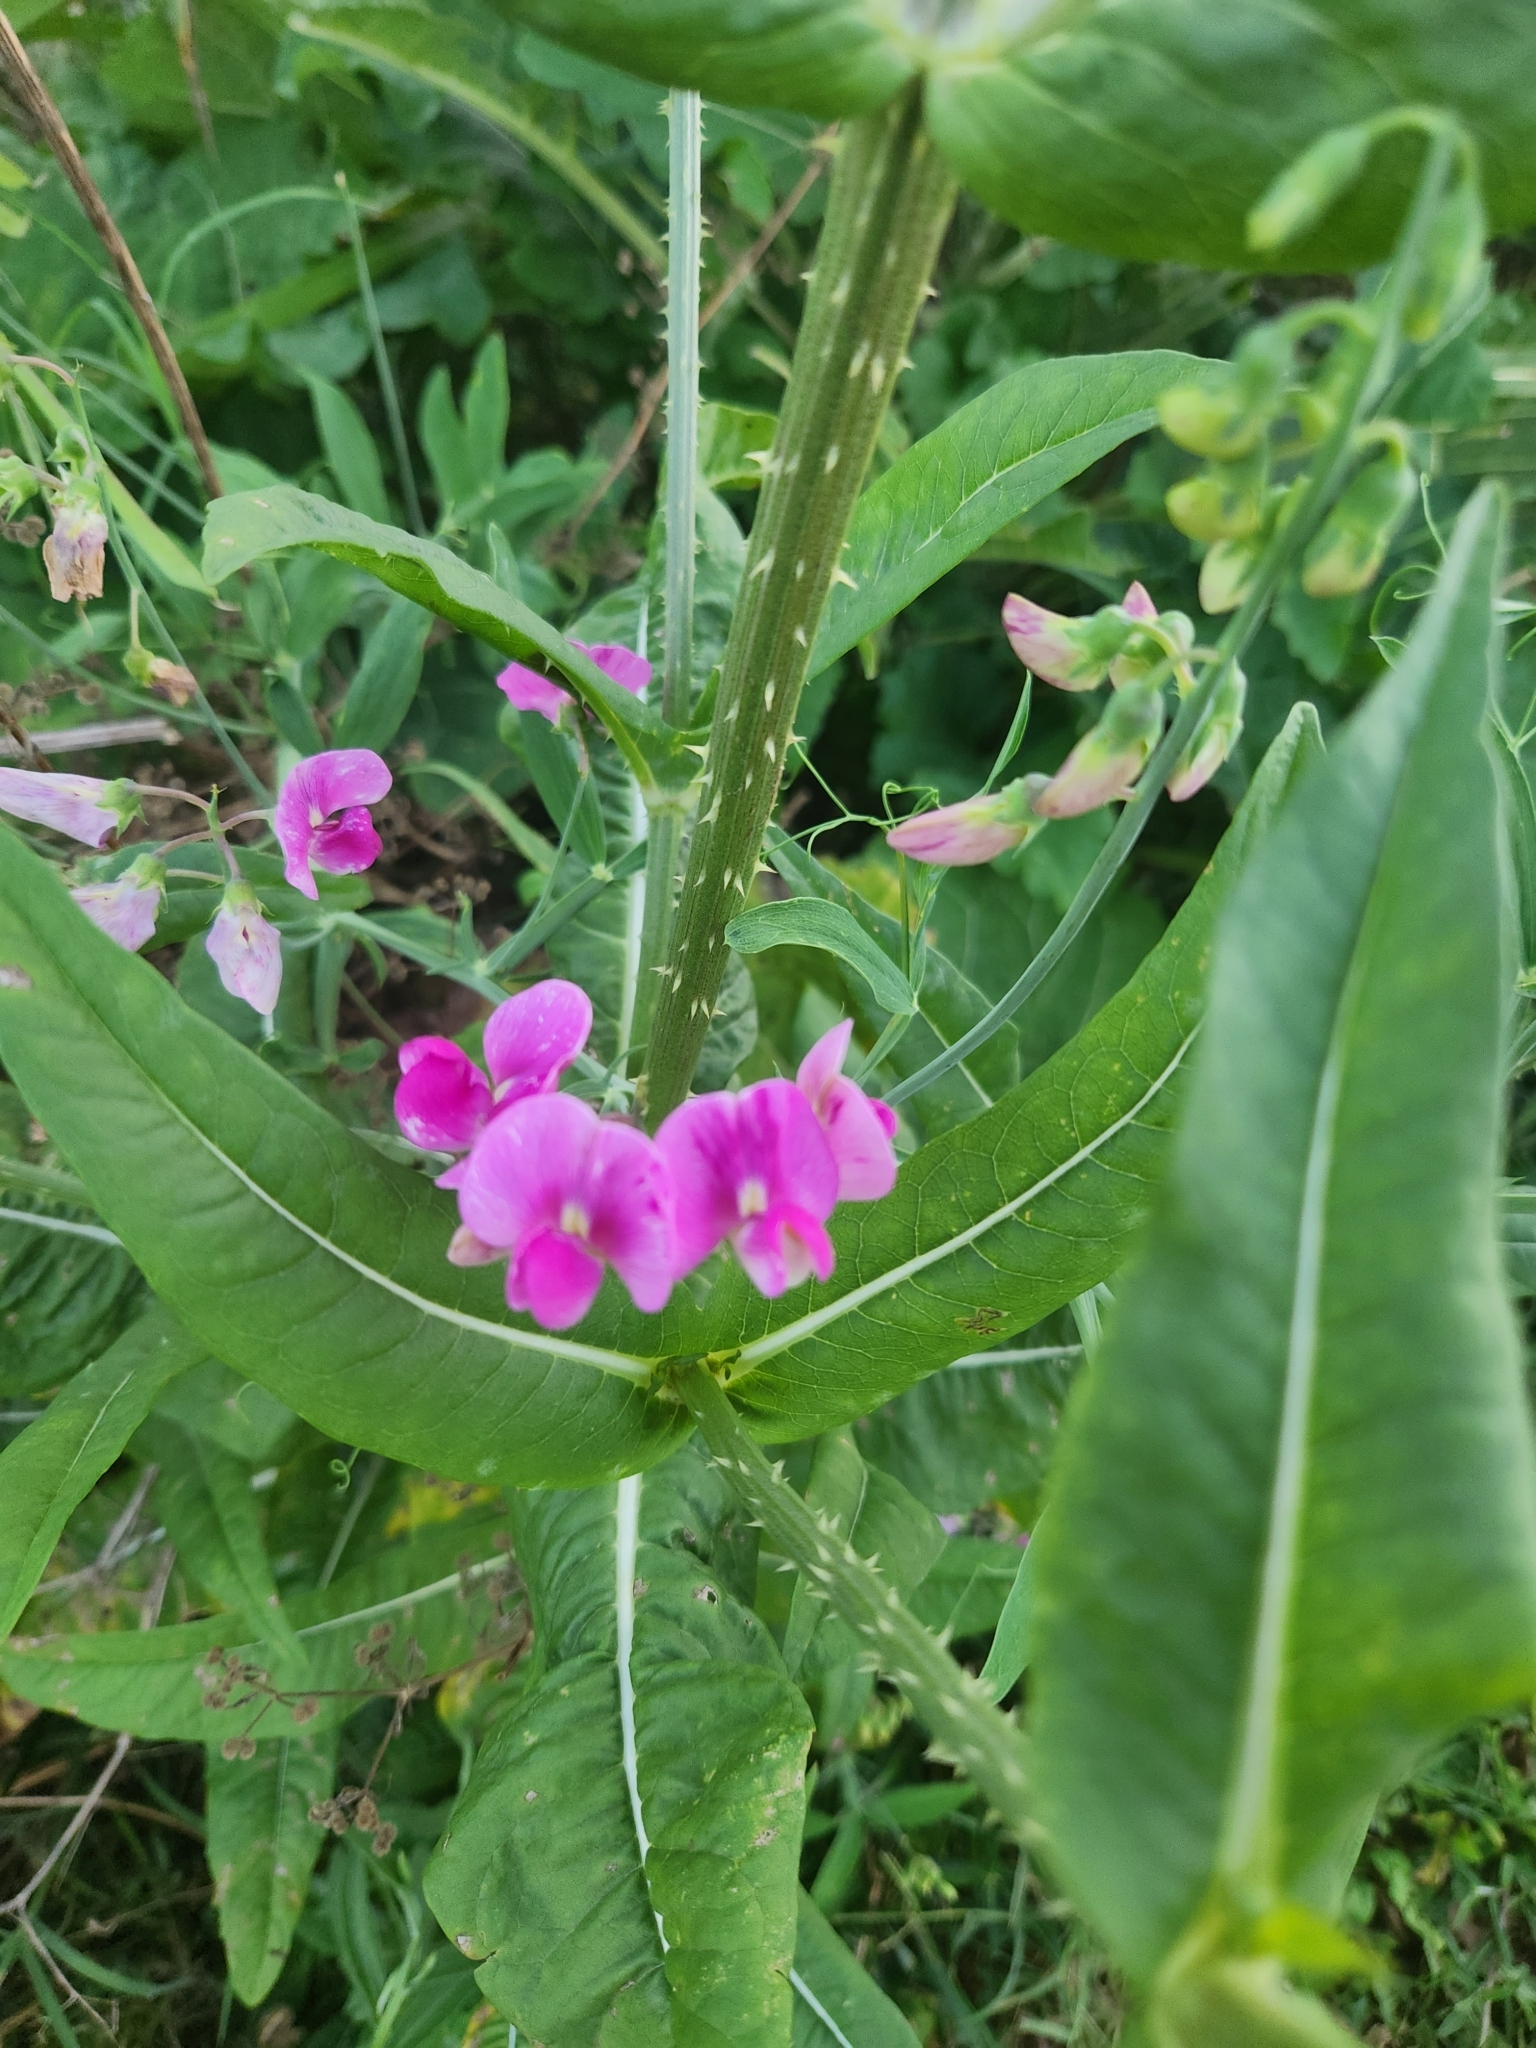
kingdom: Plantae
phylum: Tracheophyta
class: Magnoliopsida
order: Fabales
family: Fabaceae
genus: Lathyrus
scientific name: Lathyrus latifolius
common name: Perennial pea
